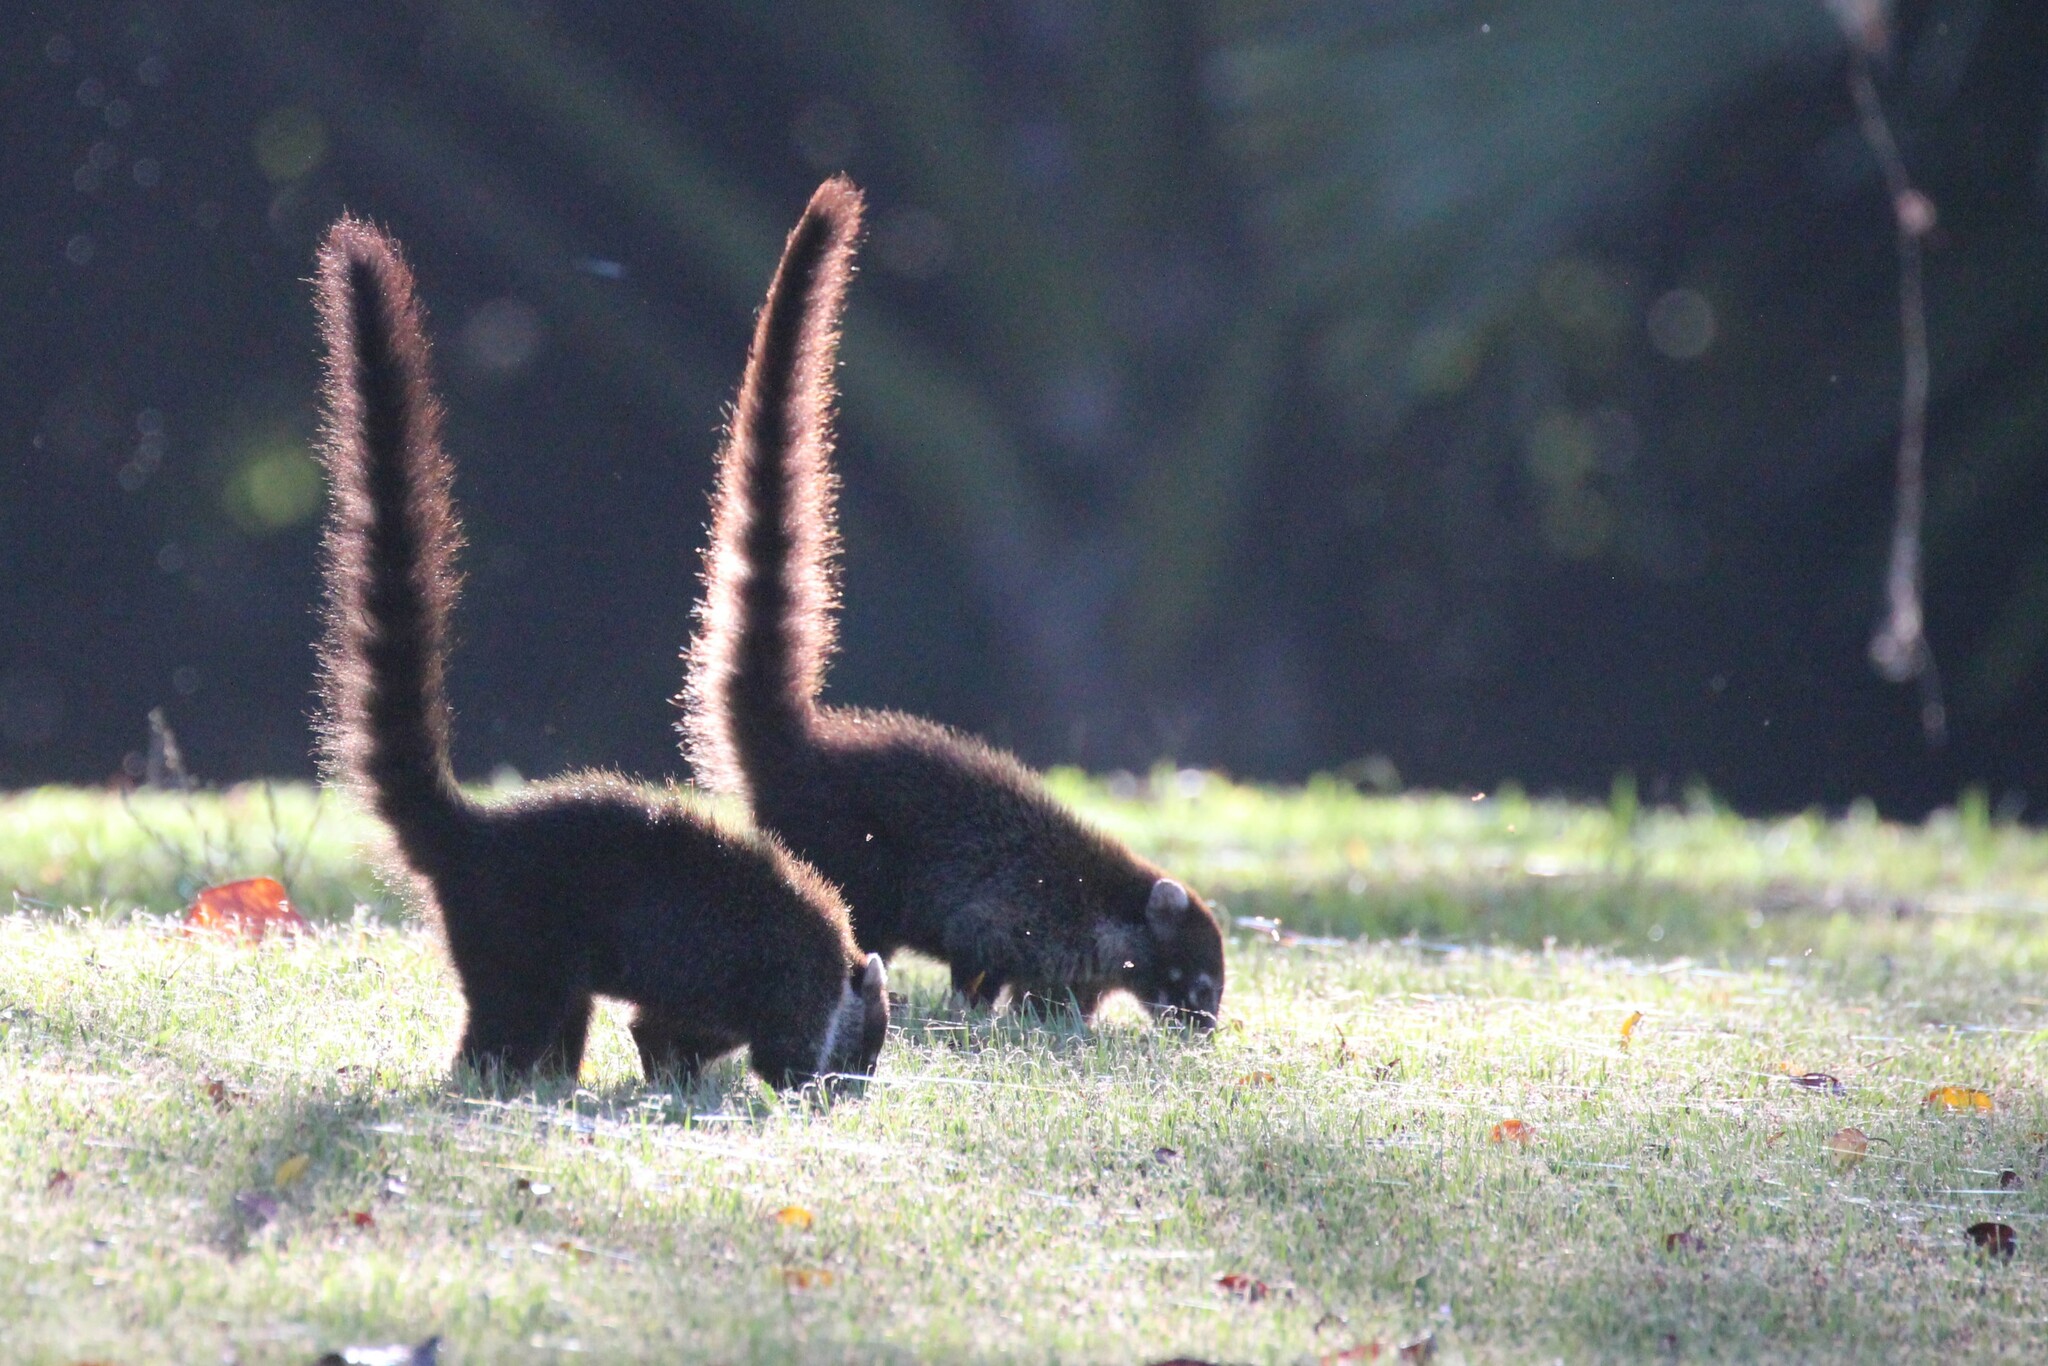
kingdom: Animalia
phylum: Chordata
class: Mammalia
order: Carnivora
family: Procyonidae
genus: Nasua
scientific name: Nasua narica
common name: White-nosed coati
